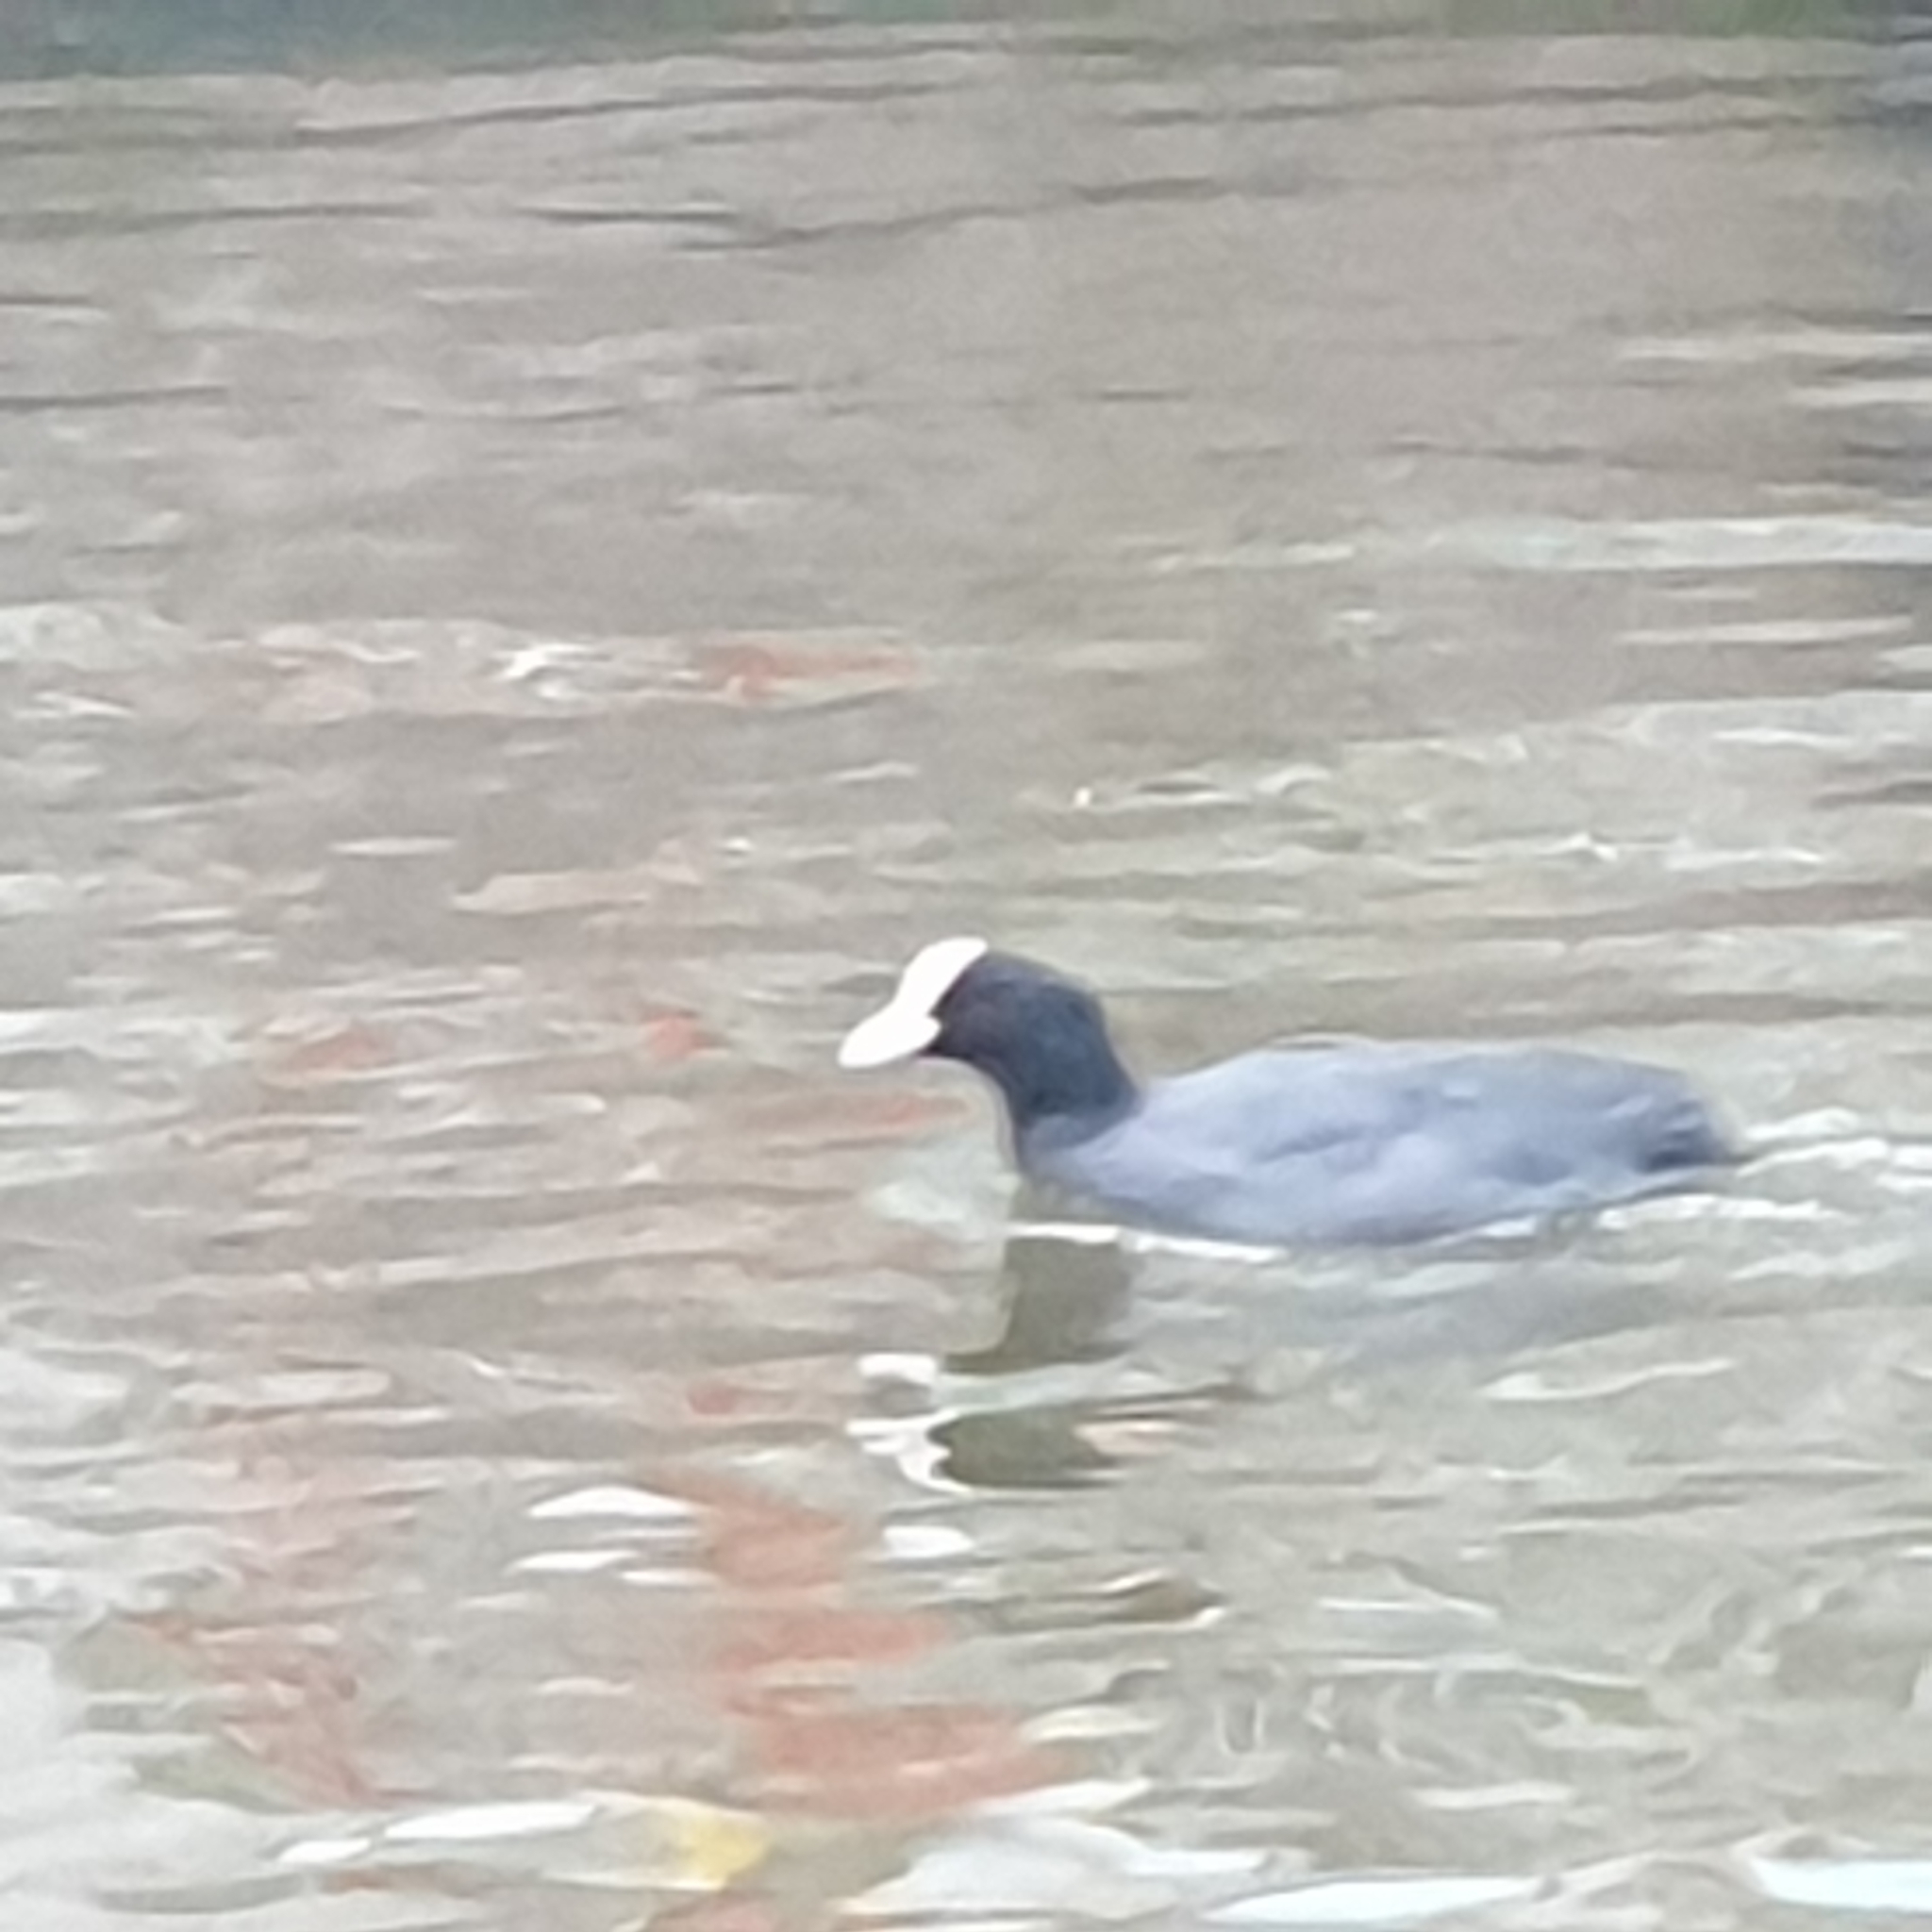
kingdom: Animalia
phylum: Chordata
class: Aves
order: Gruiformes
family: Rallidae
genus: Fulica
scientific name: Fulica atra
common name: Eurasian coot
